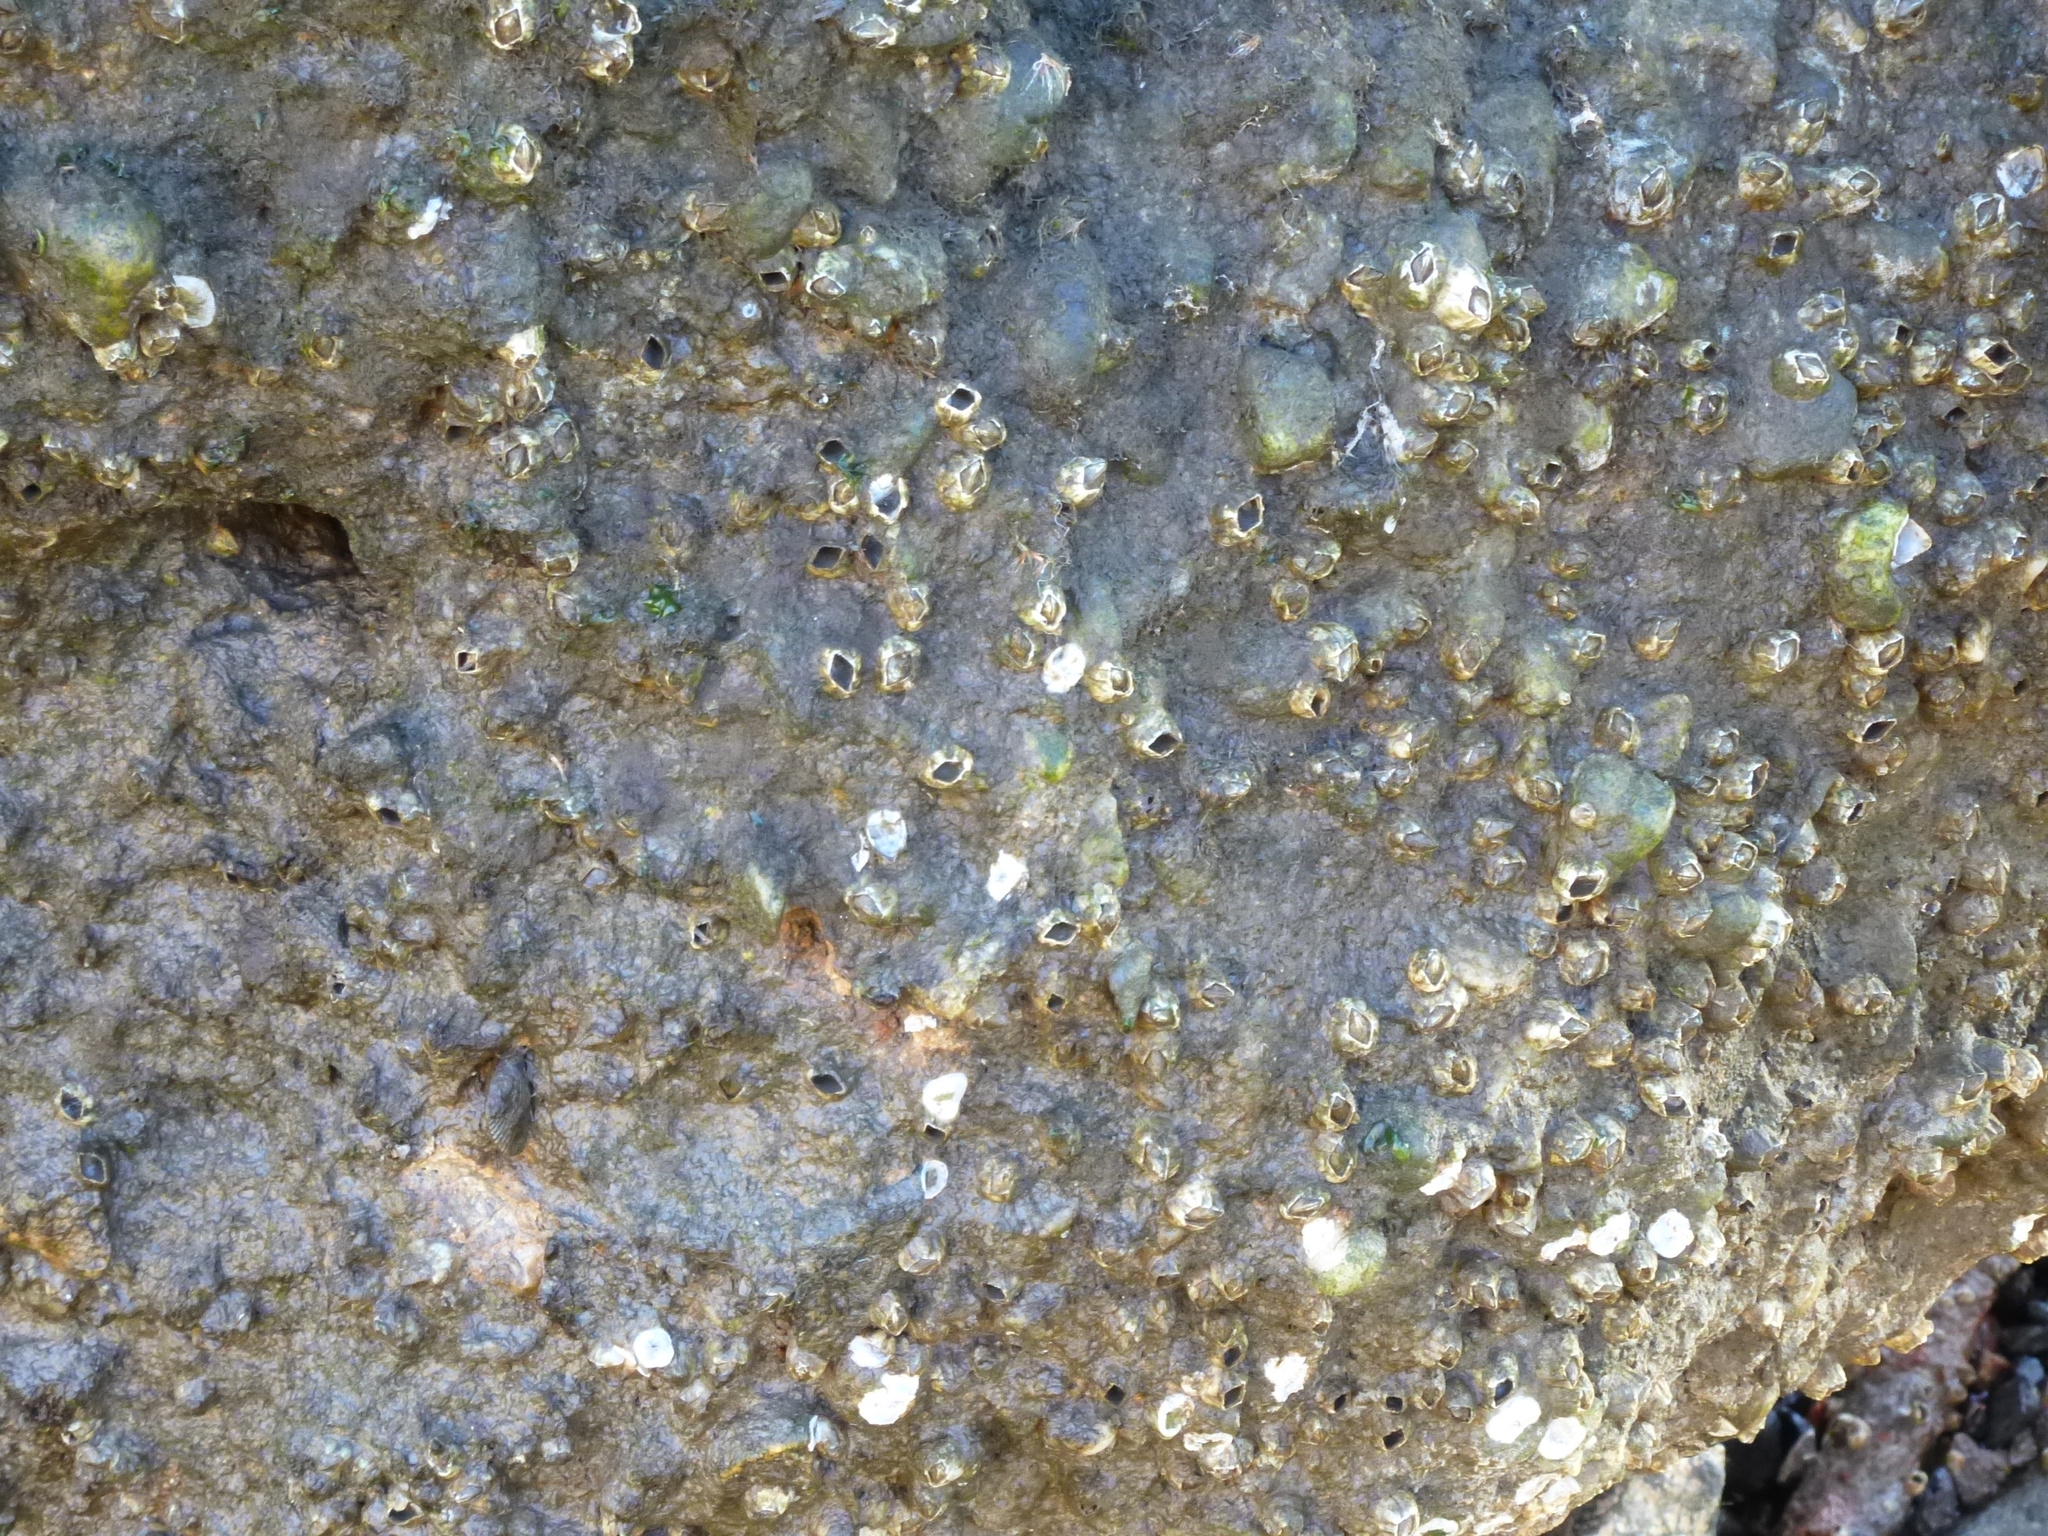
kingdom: Animalia
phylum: Arthropoda
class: Maxillopoda
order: Sessilia
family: Balanidae
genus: Amphibalanus
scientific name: Amphibalanus improvisus
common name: Bay barnacle
